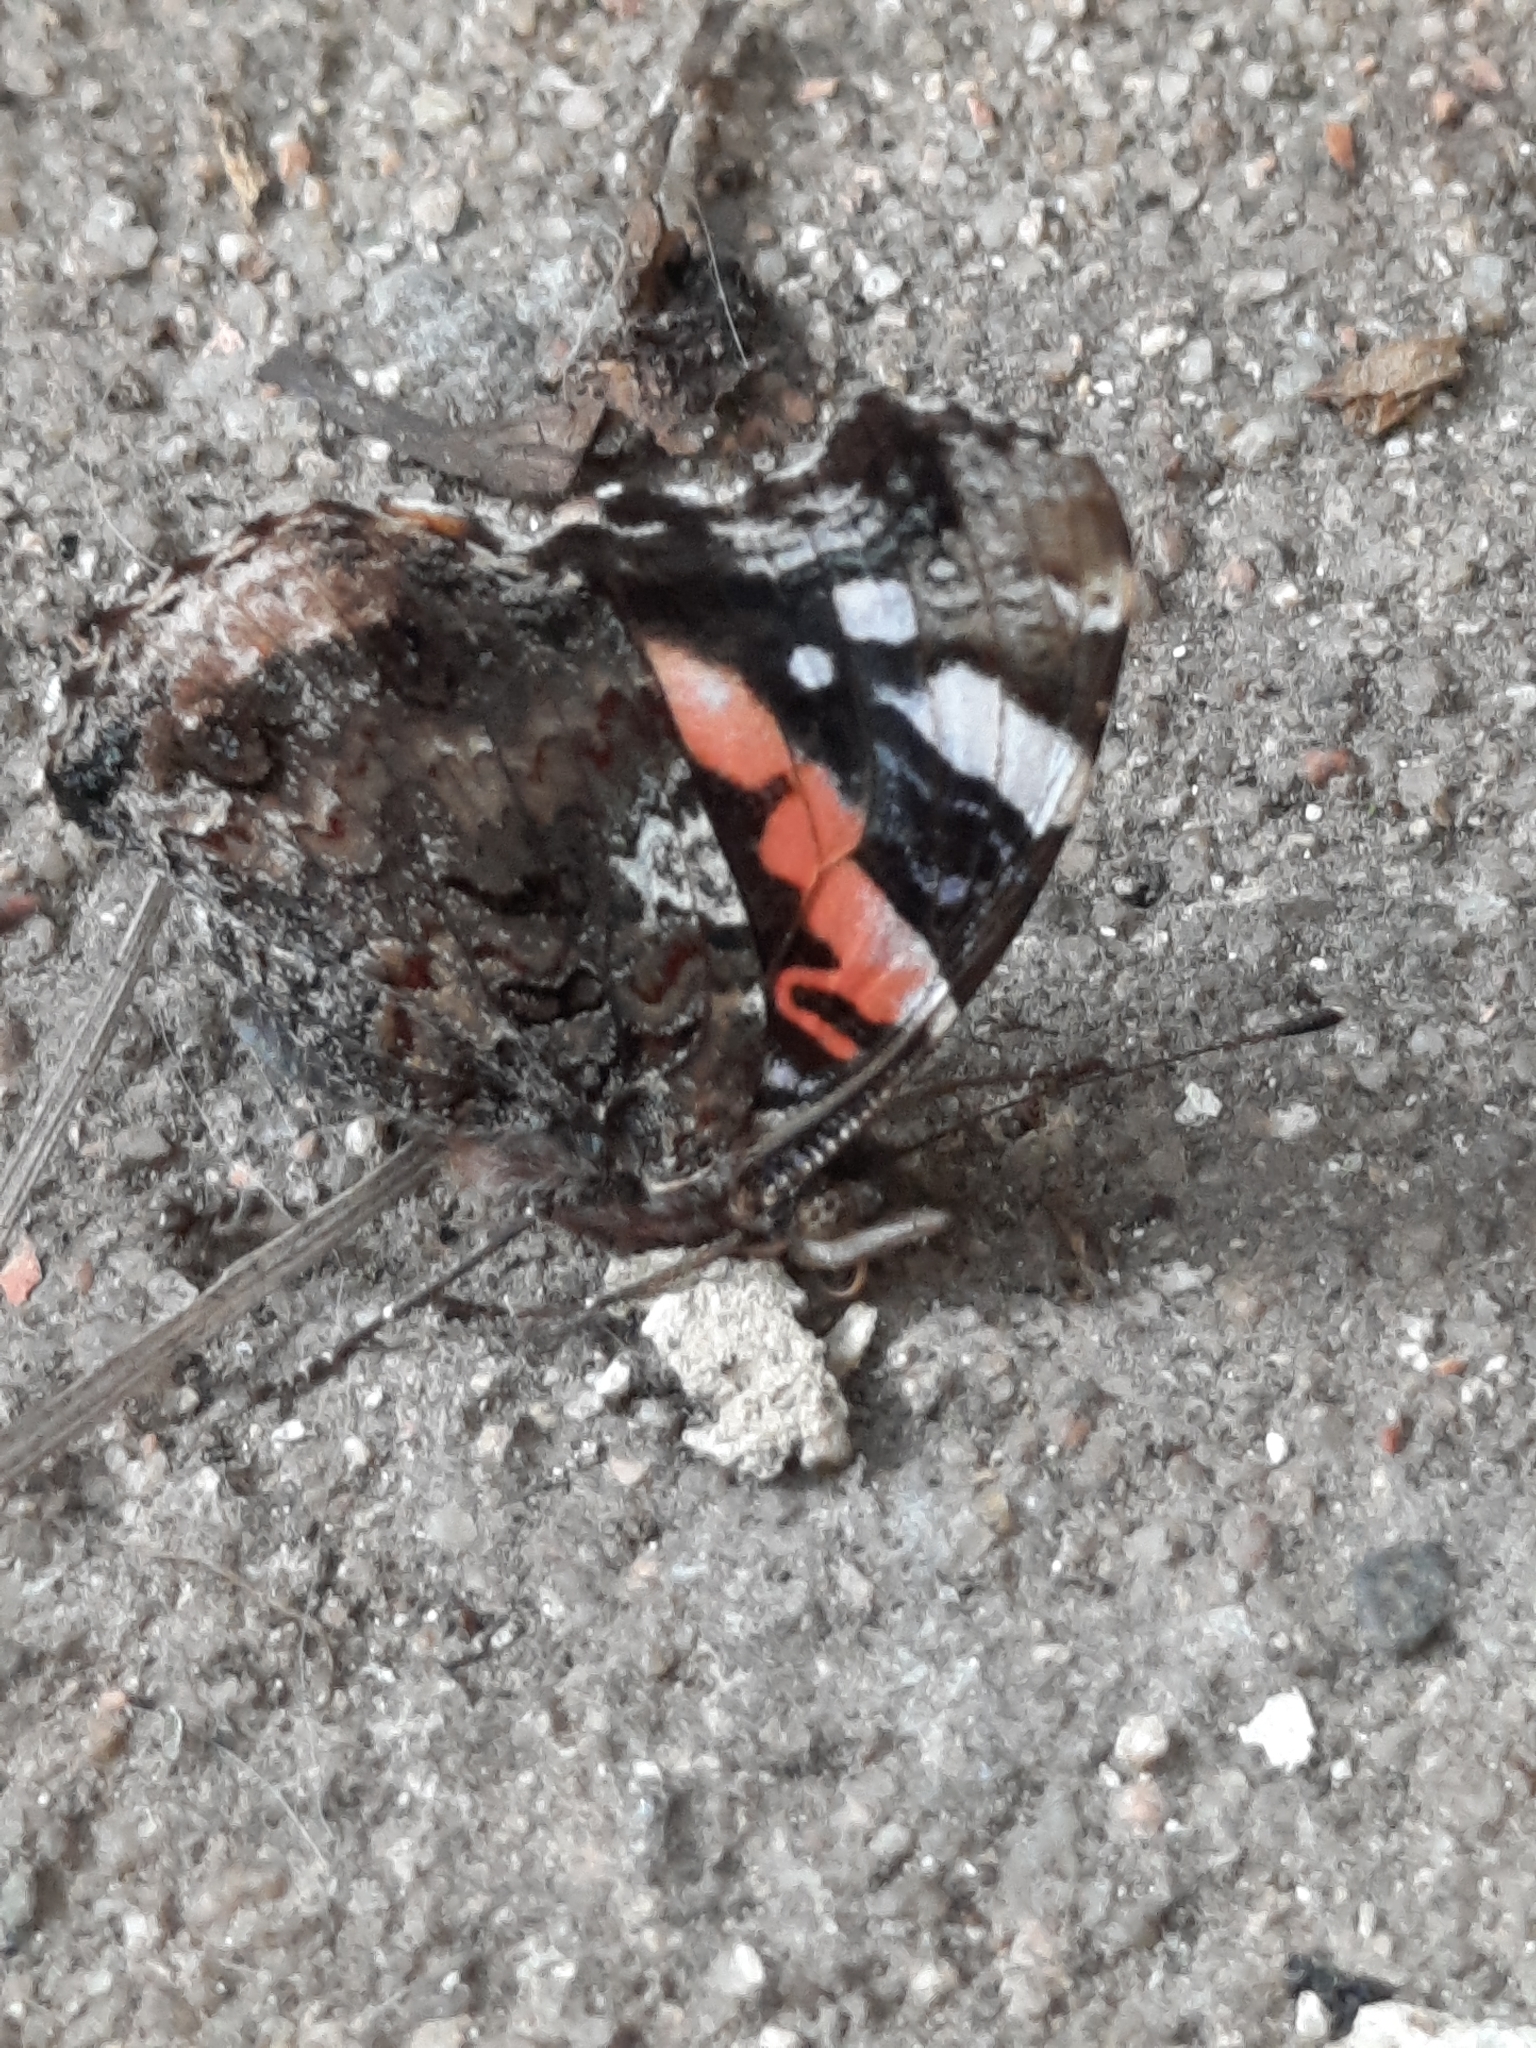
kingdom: Animalia
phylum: Arthropoda
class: Insecta
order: Lepidoptera
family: Nymphalidae
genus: Vanessa
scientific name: Vanessa atalanta
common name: Red admiral
